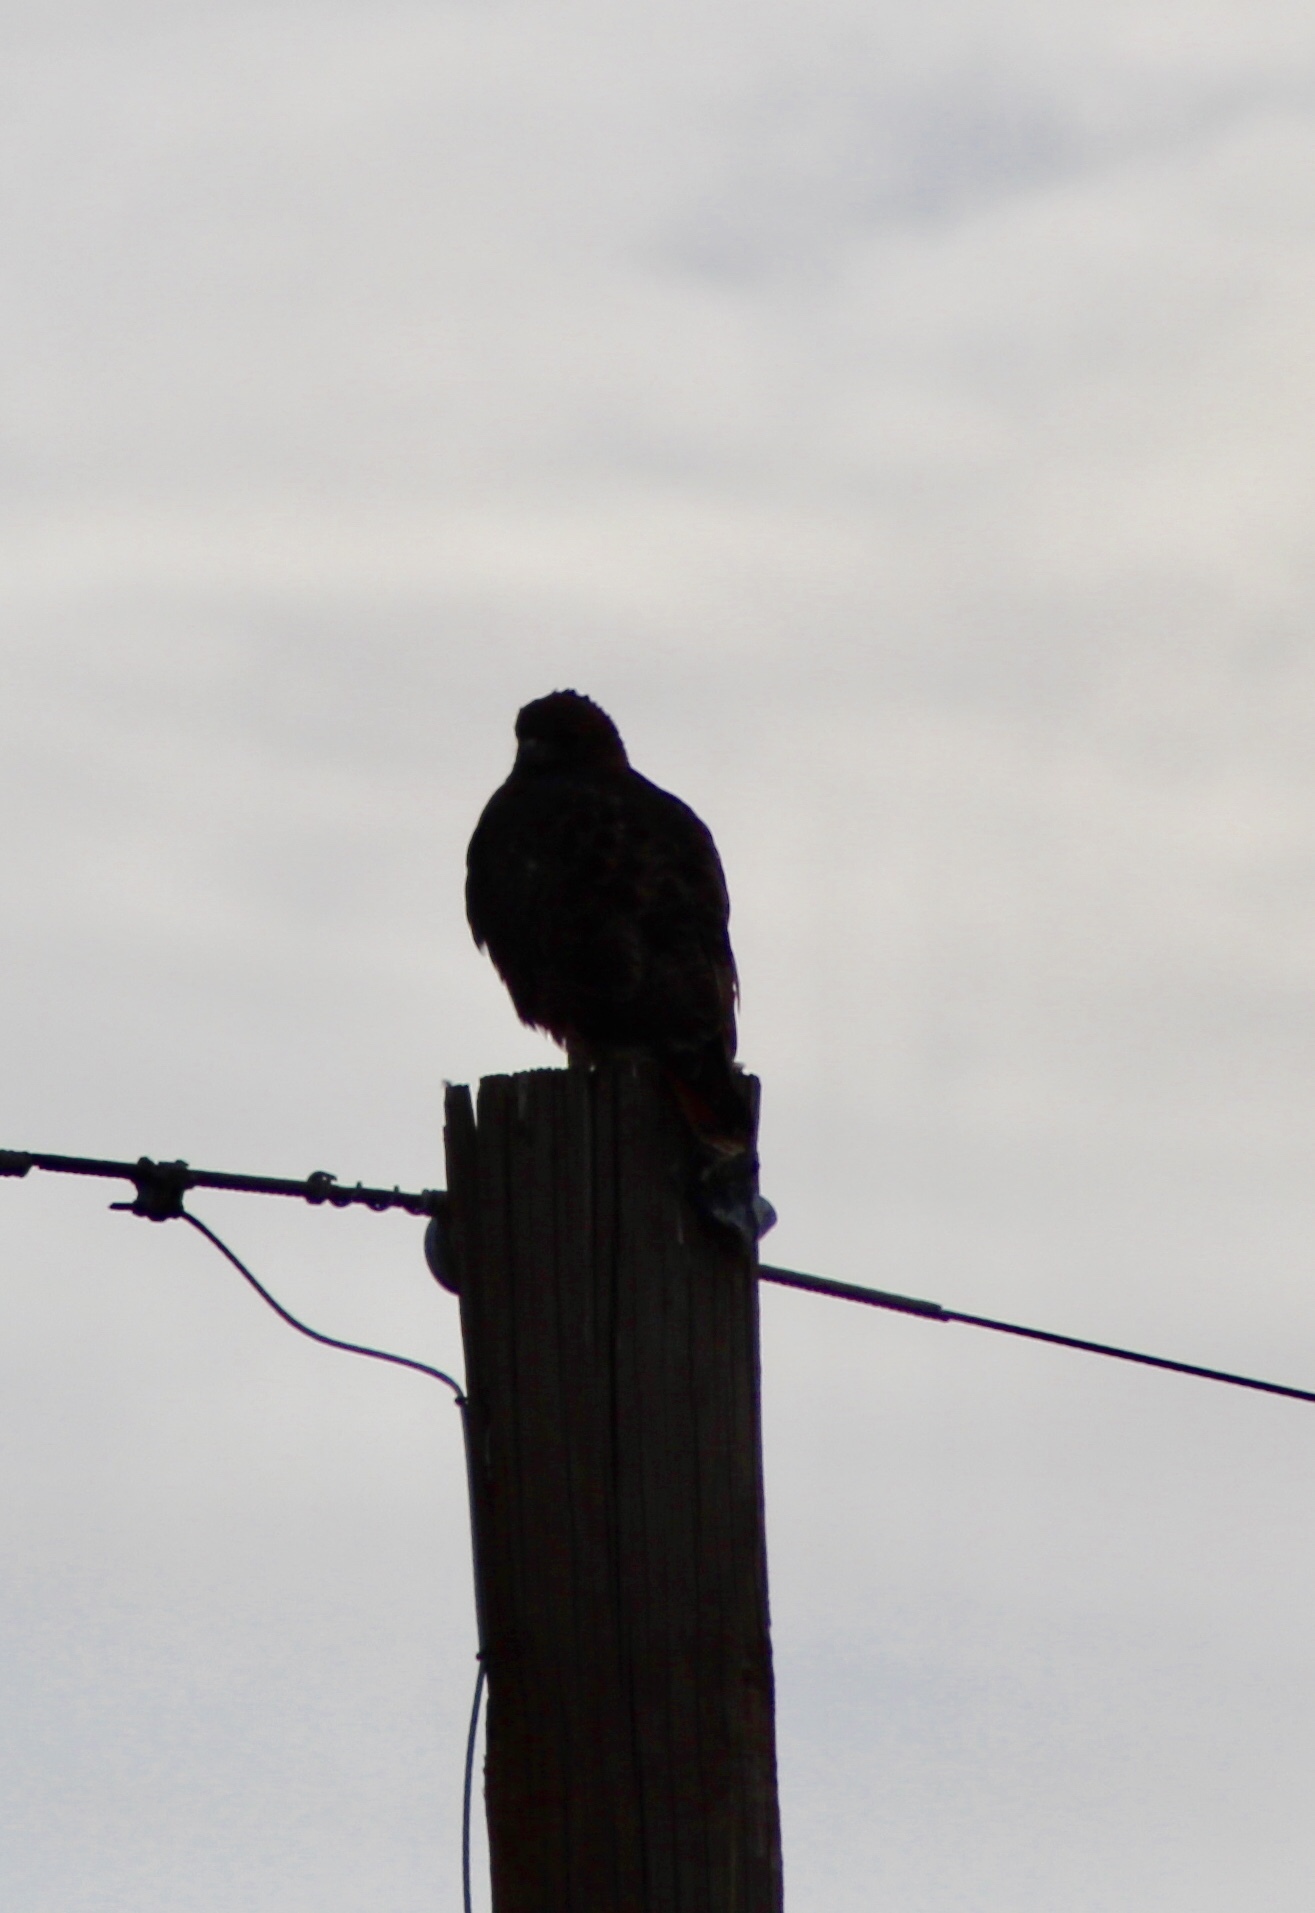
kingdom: Animalia
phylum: Chordata
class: Aves
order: Accipitriformes
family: Accipitridae
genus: Buteo
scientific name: Buteo jamaicensis
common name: Red-tailed hawk
